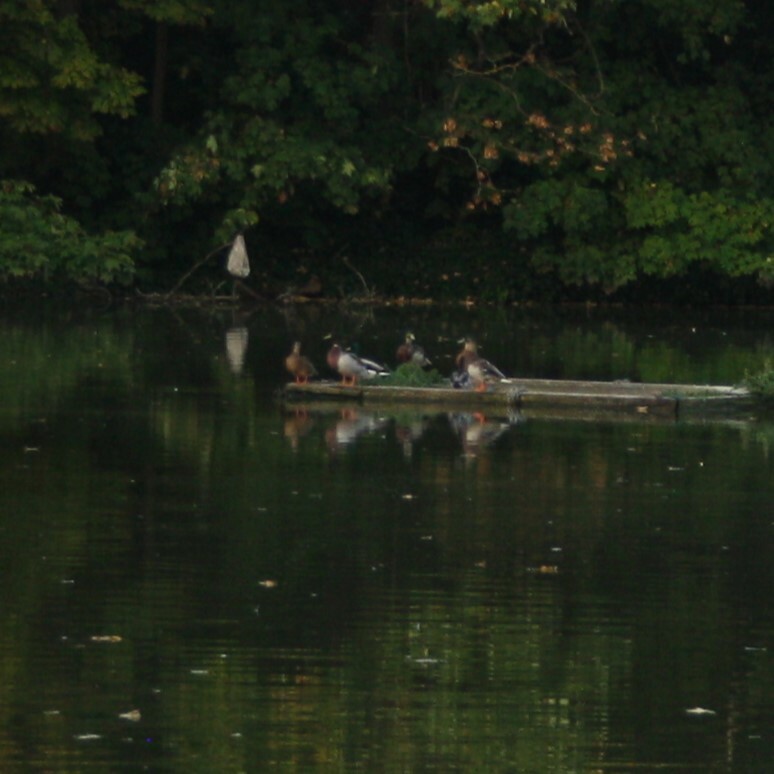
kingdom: Animalia
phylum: Chordata
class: Aves
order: Anseriformes
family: Anatidae
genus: Anas
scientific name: Anas platyrhynchos
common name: Mallard
